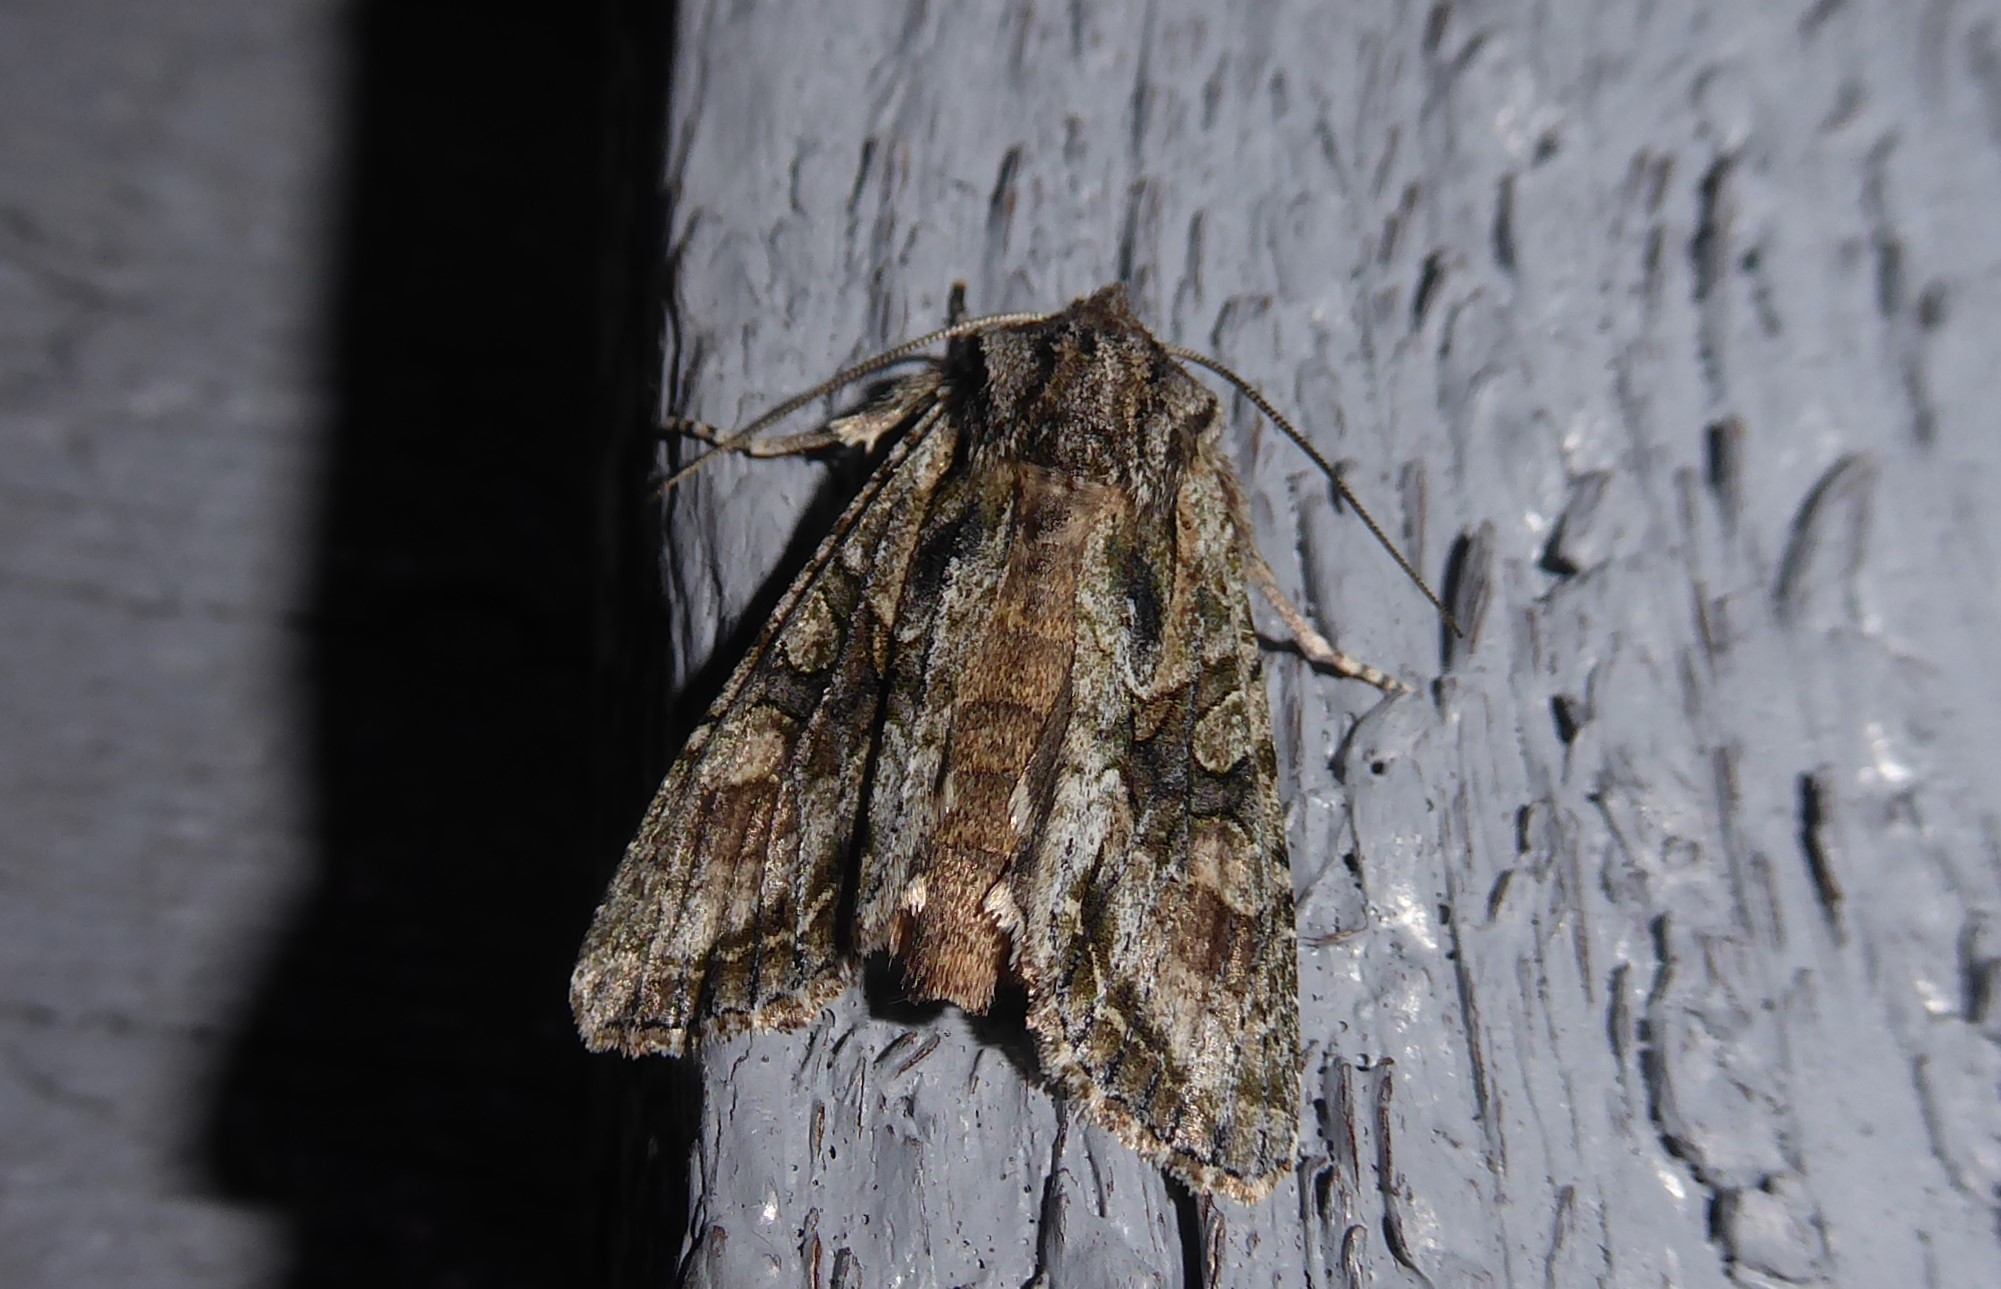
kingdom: Animalia
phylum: Arthropoda
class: Insecta
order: Lepidoptera
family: Noctuidae
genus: Ichneutica
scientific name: Ichneutica mutans
